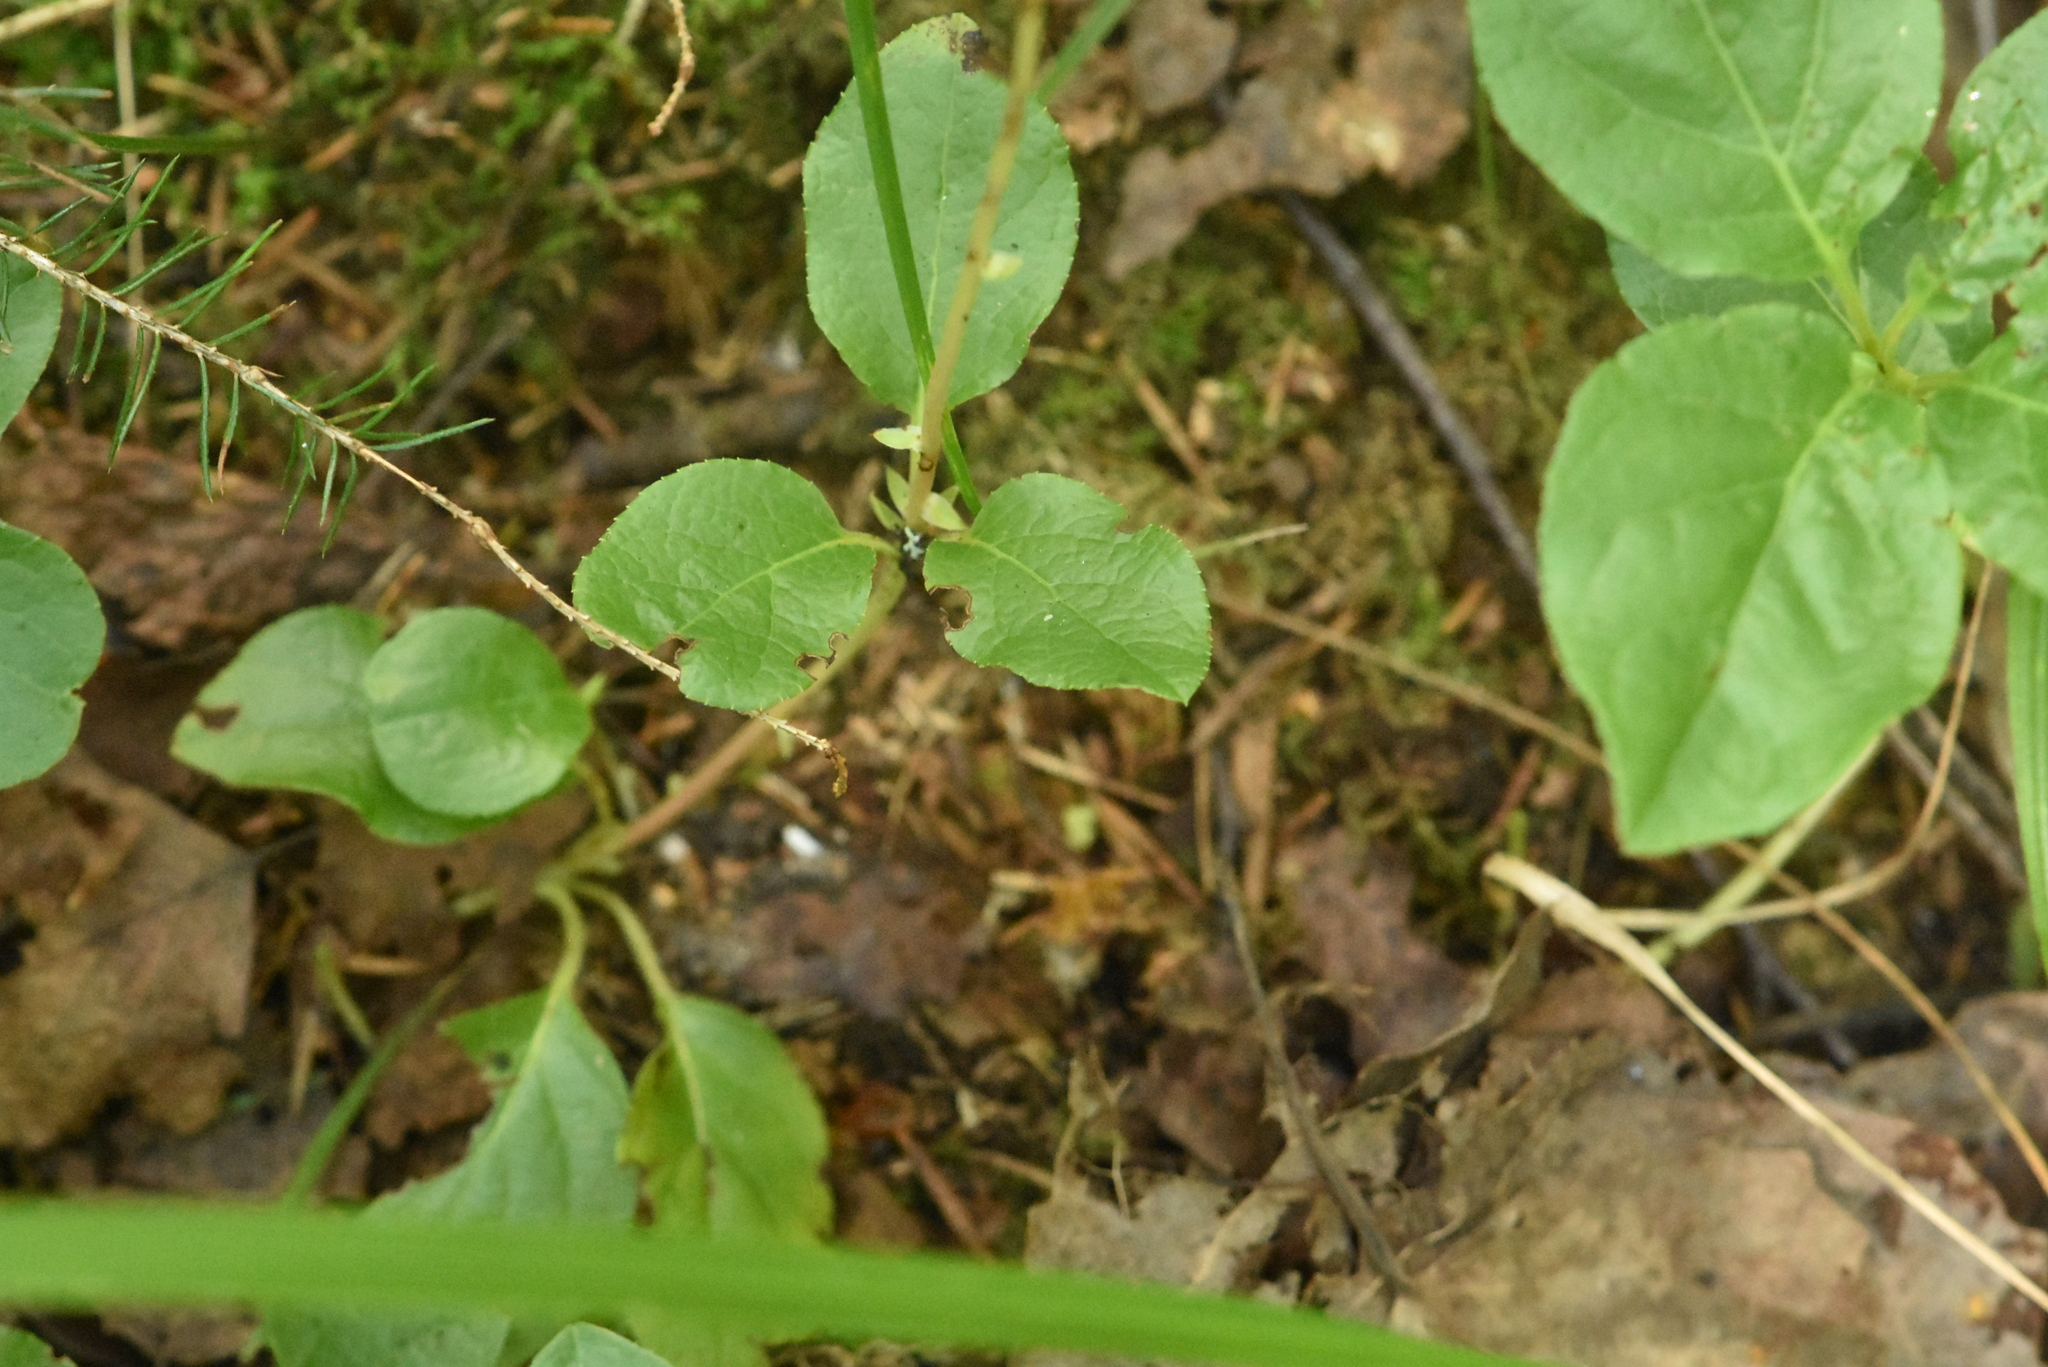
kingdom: Plantae
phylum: Tracheophyta
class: Magnoliopsida
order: Ericales
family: Ericaceae
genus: Orthilia
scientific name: Orthilia secunda
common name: One-sided orthilia
